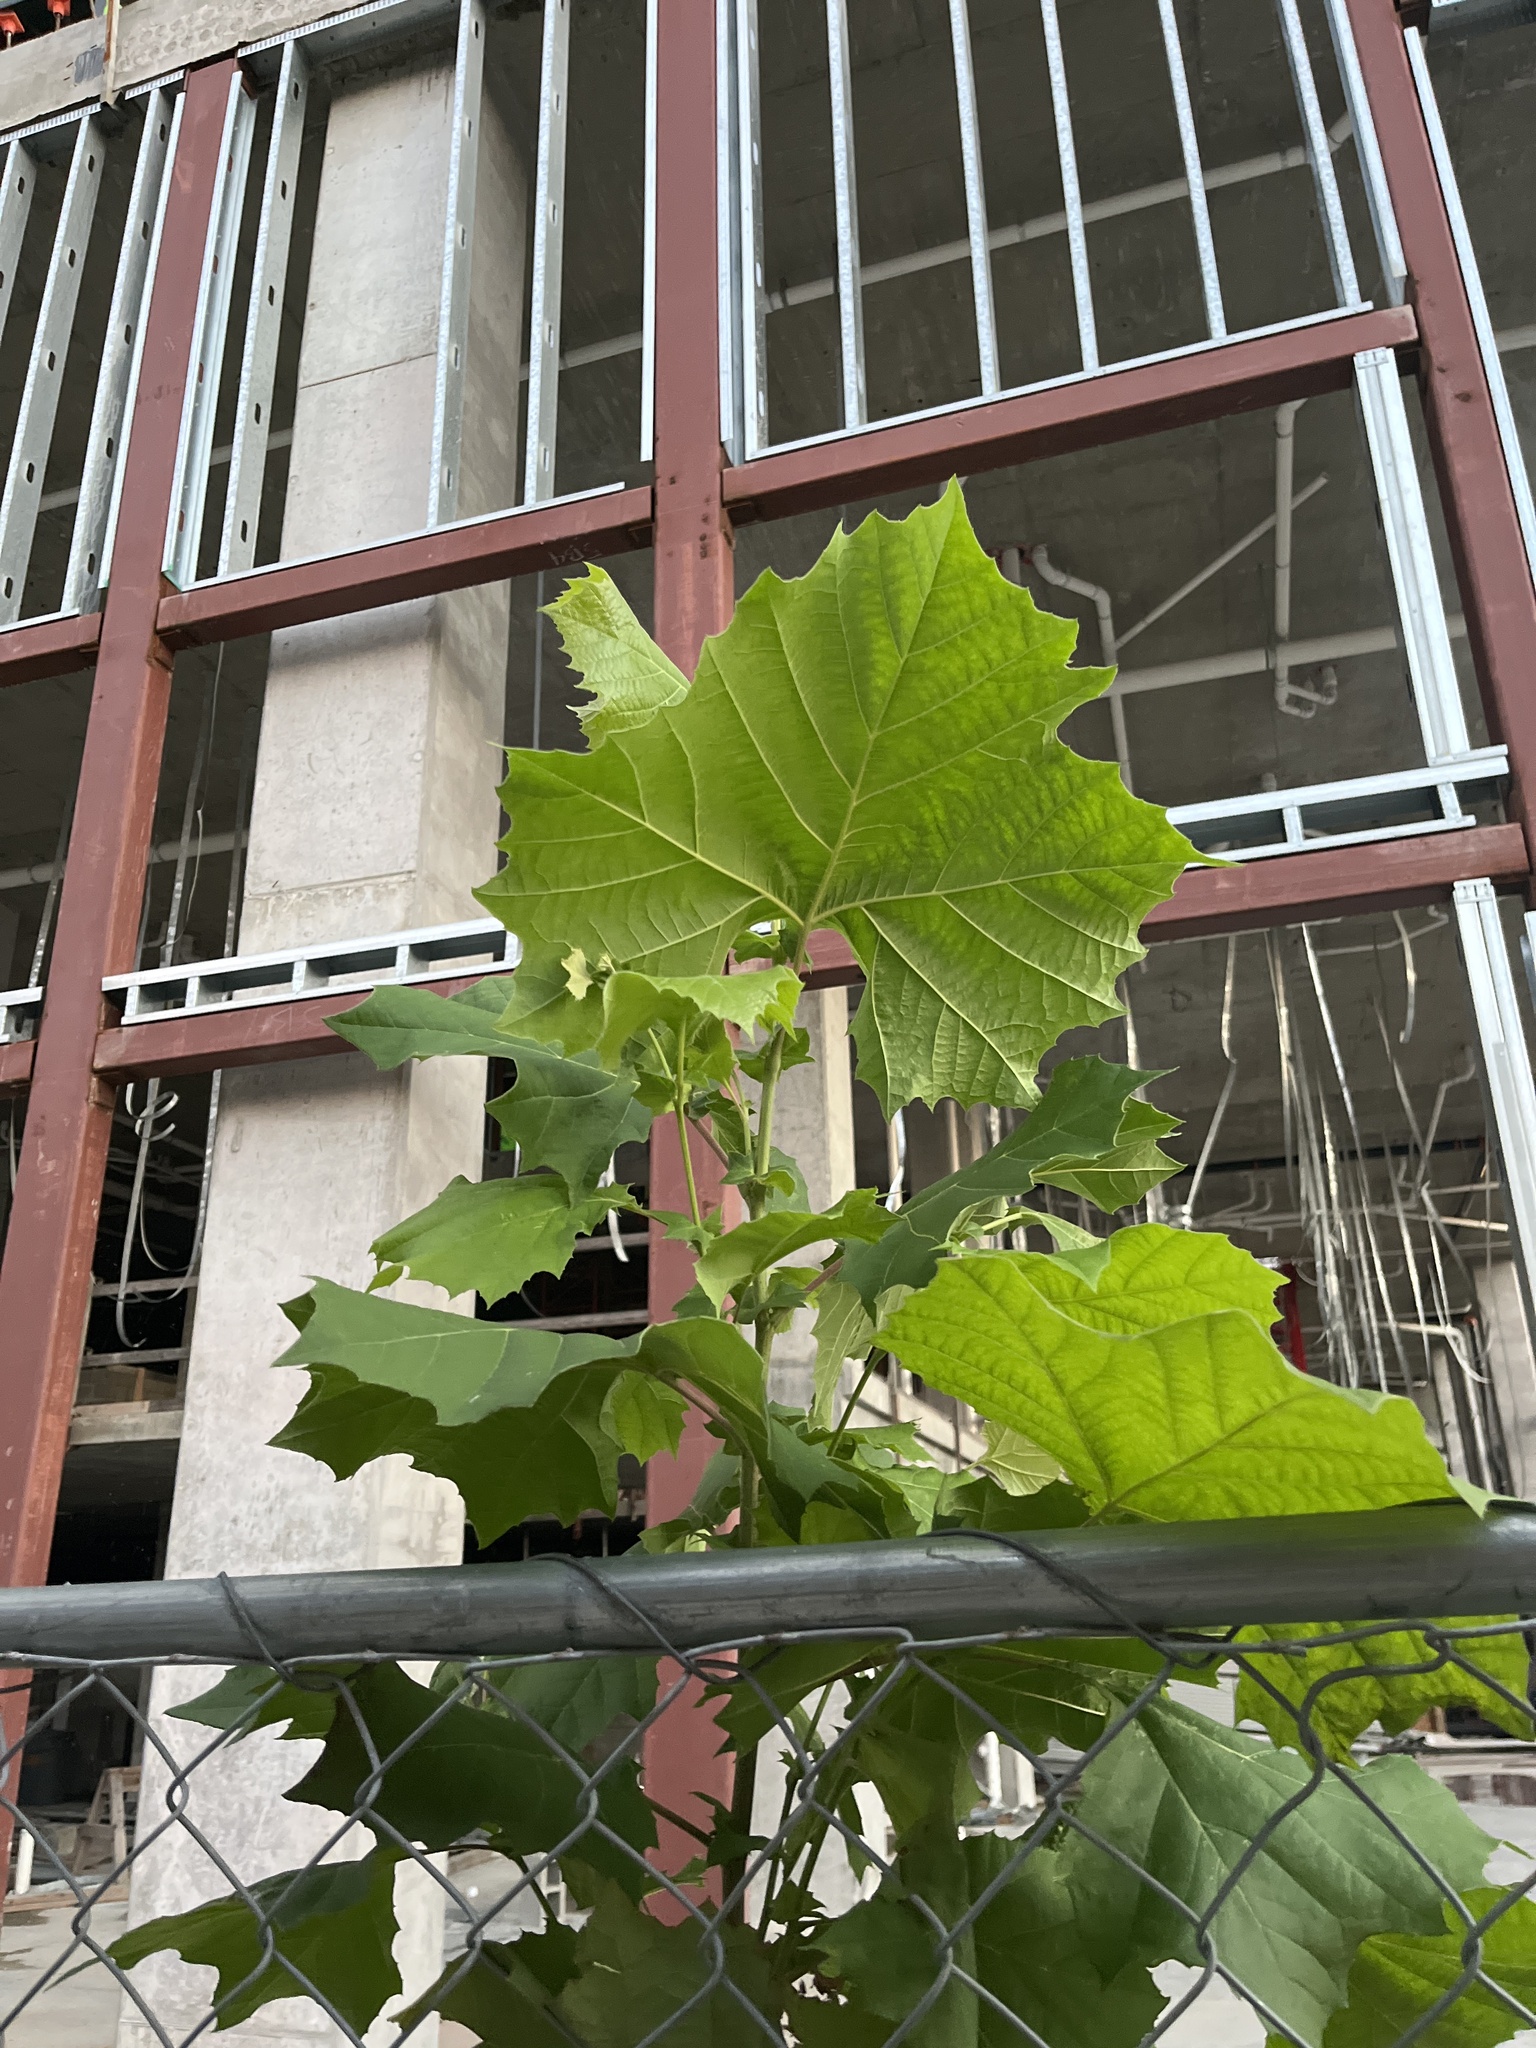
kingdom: Plantae
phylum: Tracheophyta
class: Magnoliopsida
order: Proteales
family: Platanaceae
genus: Platanus
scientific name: Platanus occidentalis
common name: American sycamore
